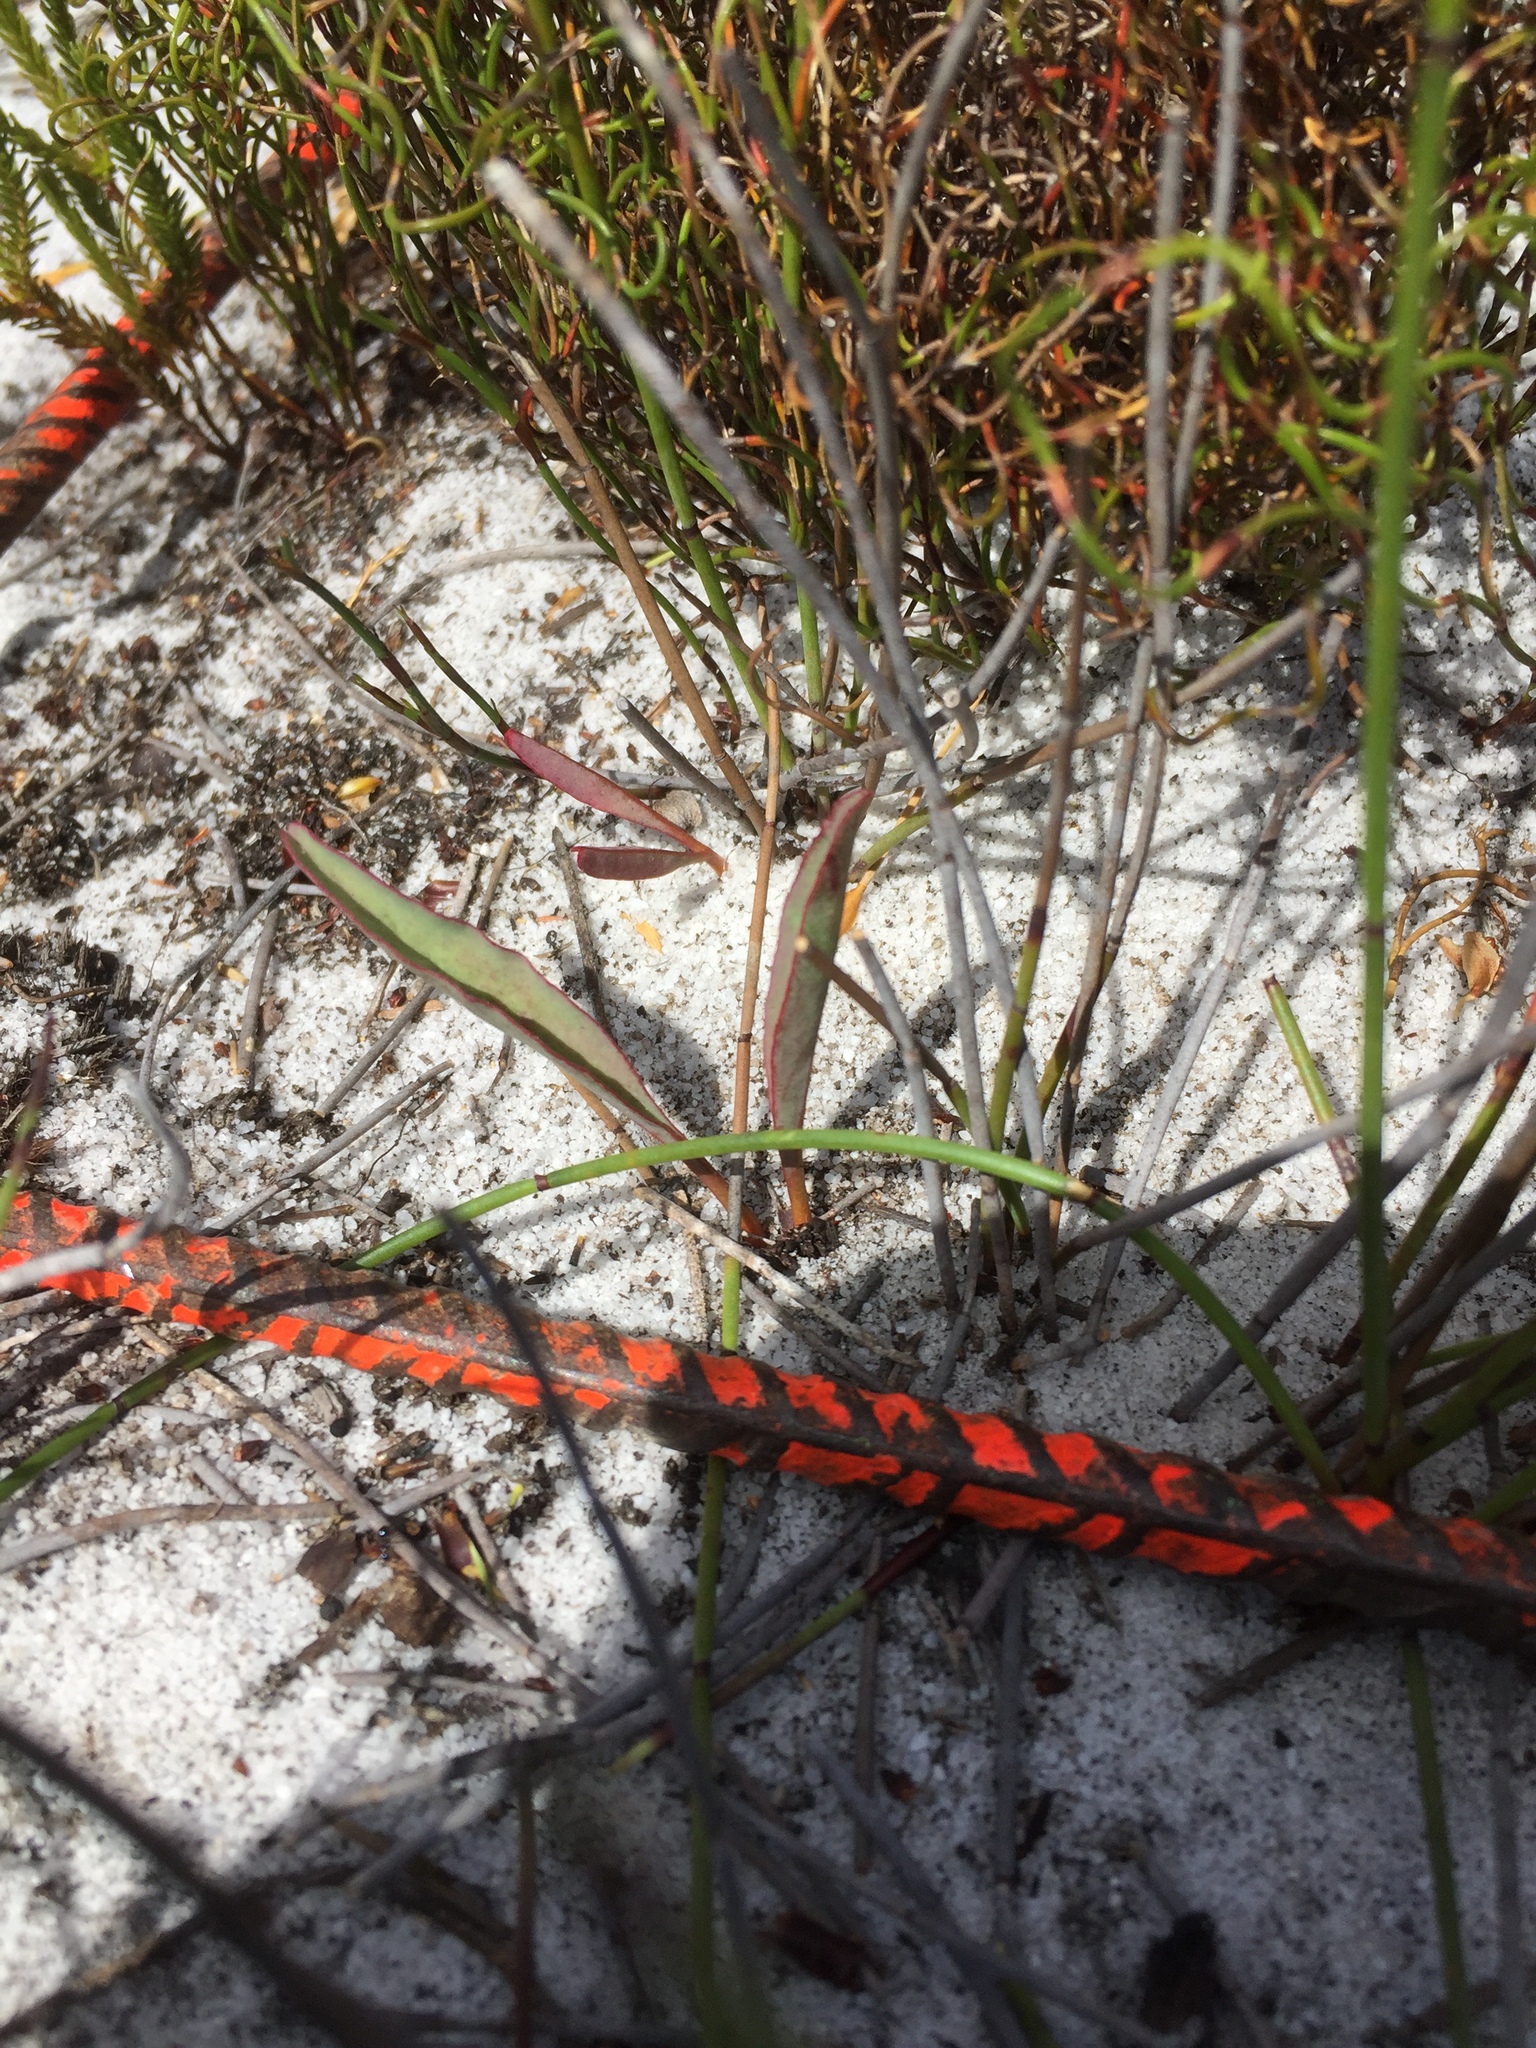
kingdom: Plantae
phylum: Tracheophyta
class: Magnoliopsida
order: Malpighiales
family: Euphorbiaceae
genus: Euphorbia
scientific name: Euphorbia tuberosa
